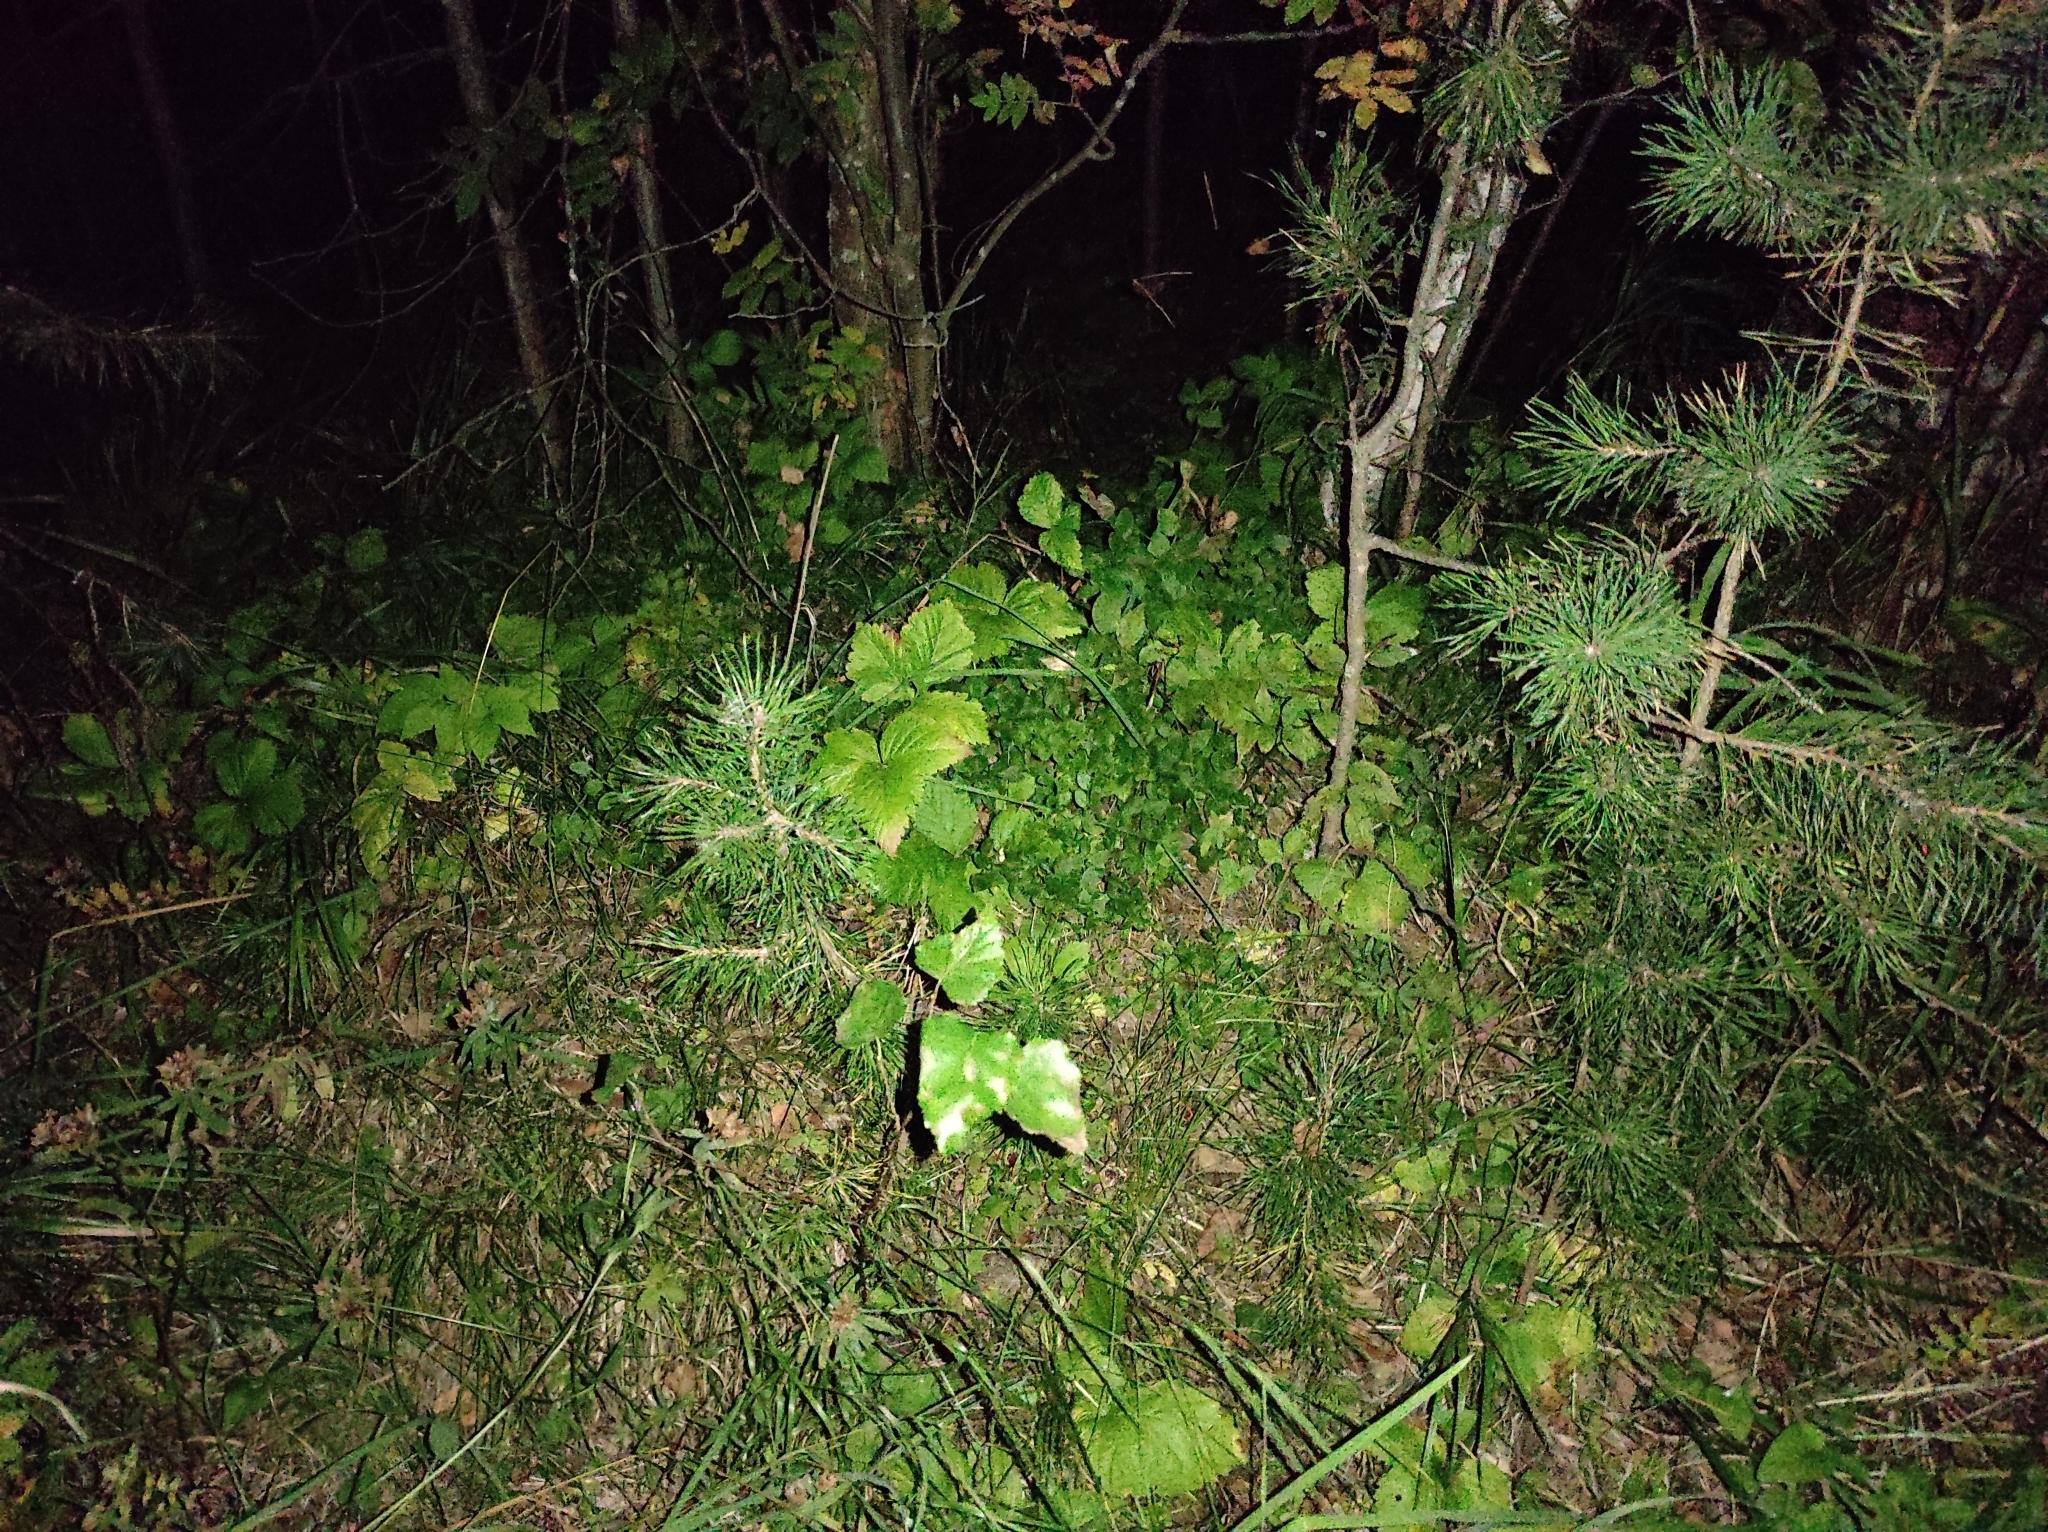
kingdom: Plantae
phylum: Tracheophyta
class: Magnoliopsida
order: Ericales
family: Ericaceae
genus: Vaccinium
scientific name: Vaccinium myrtillus
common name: Bilberry
